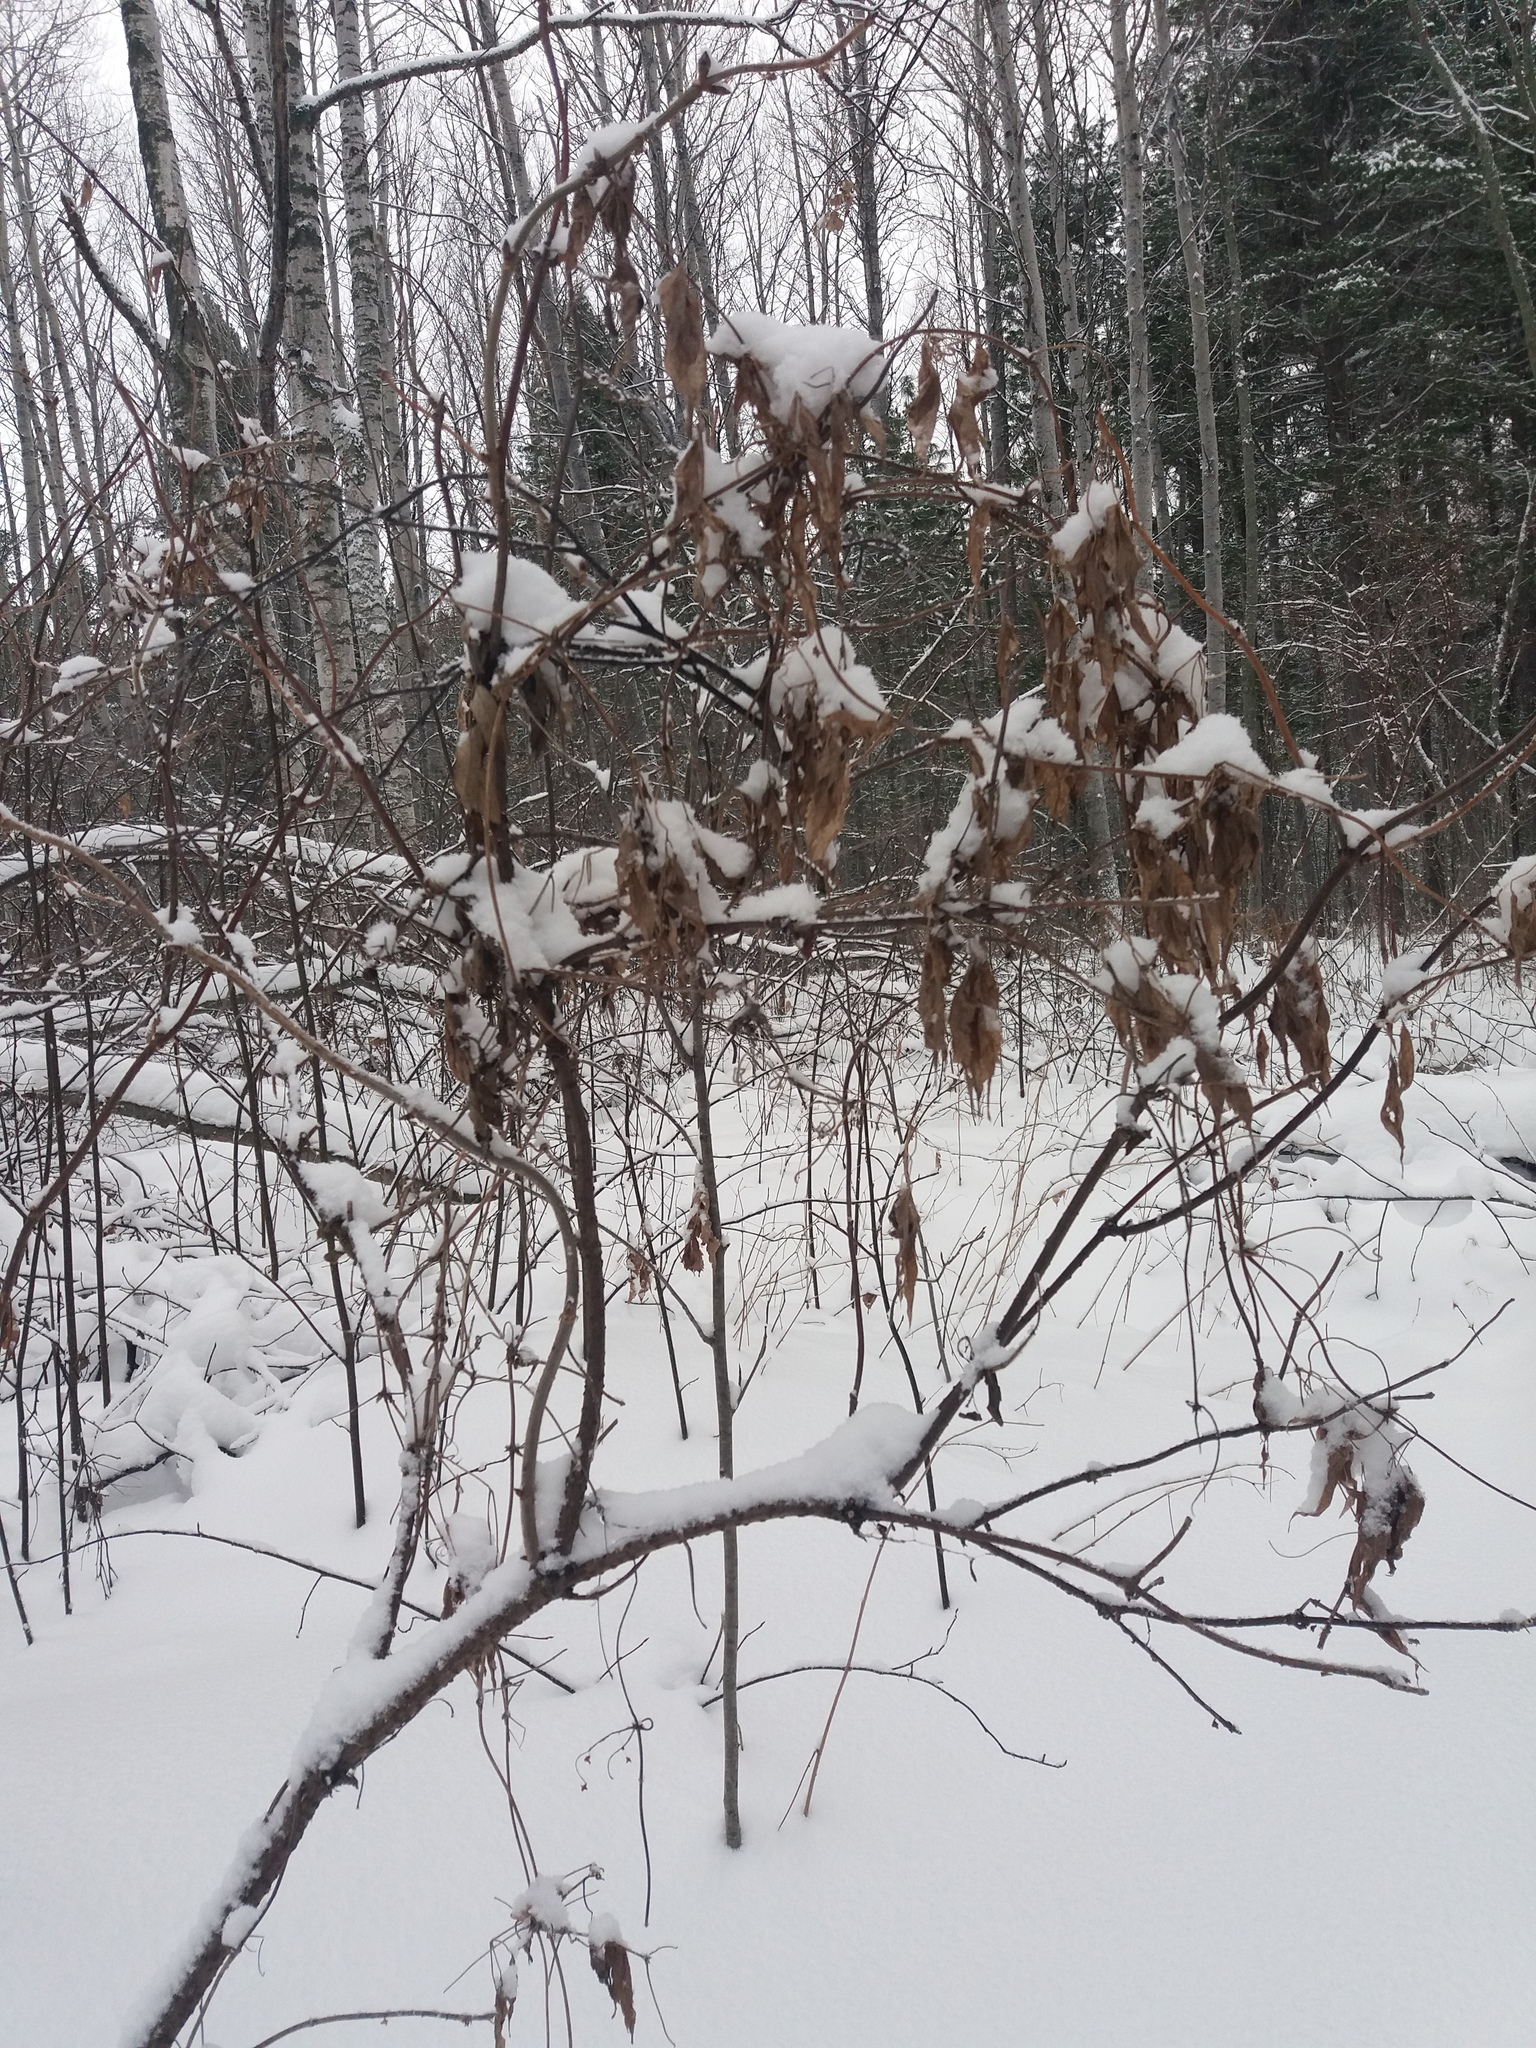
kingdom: Plantae
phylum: Tracheophyta
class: Magnoliopsida
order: Ranunculales
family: Ranunculaceae
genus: Clematis
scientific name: Clematis sibirica
